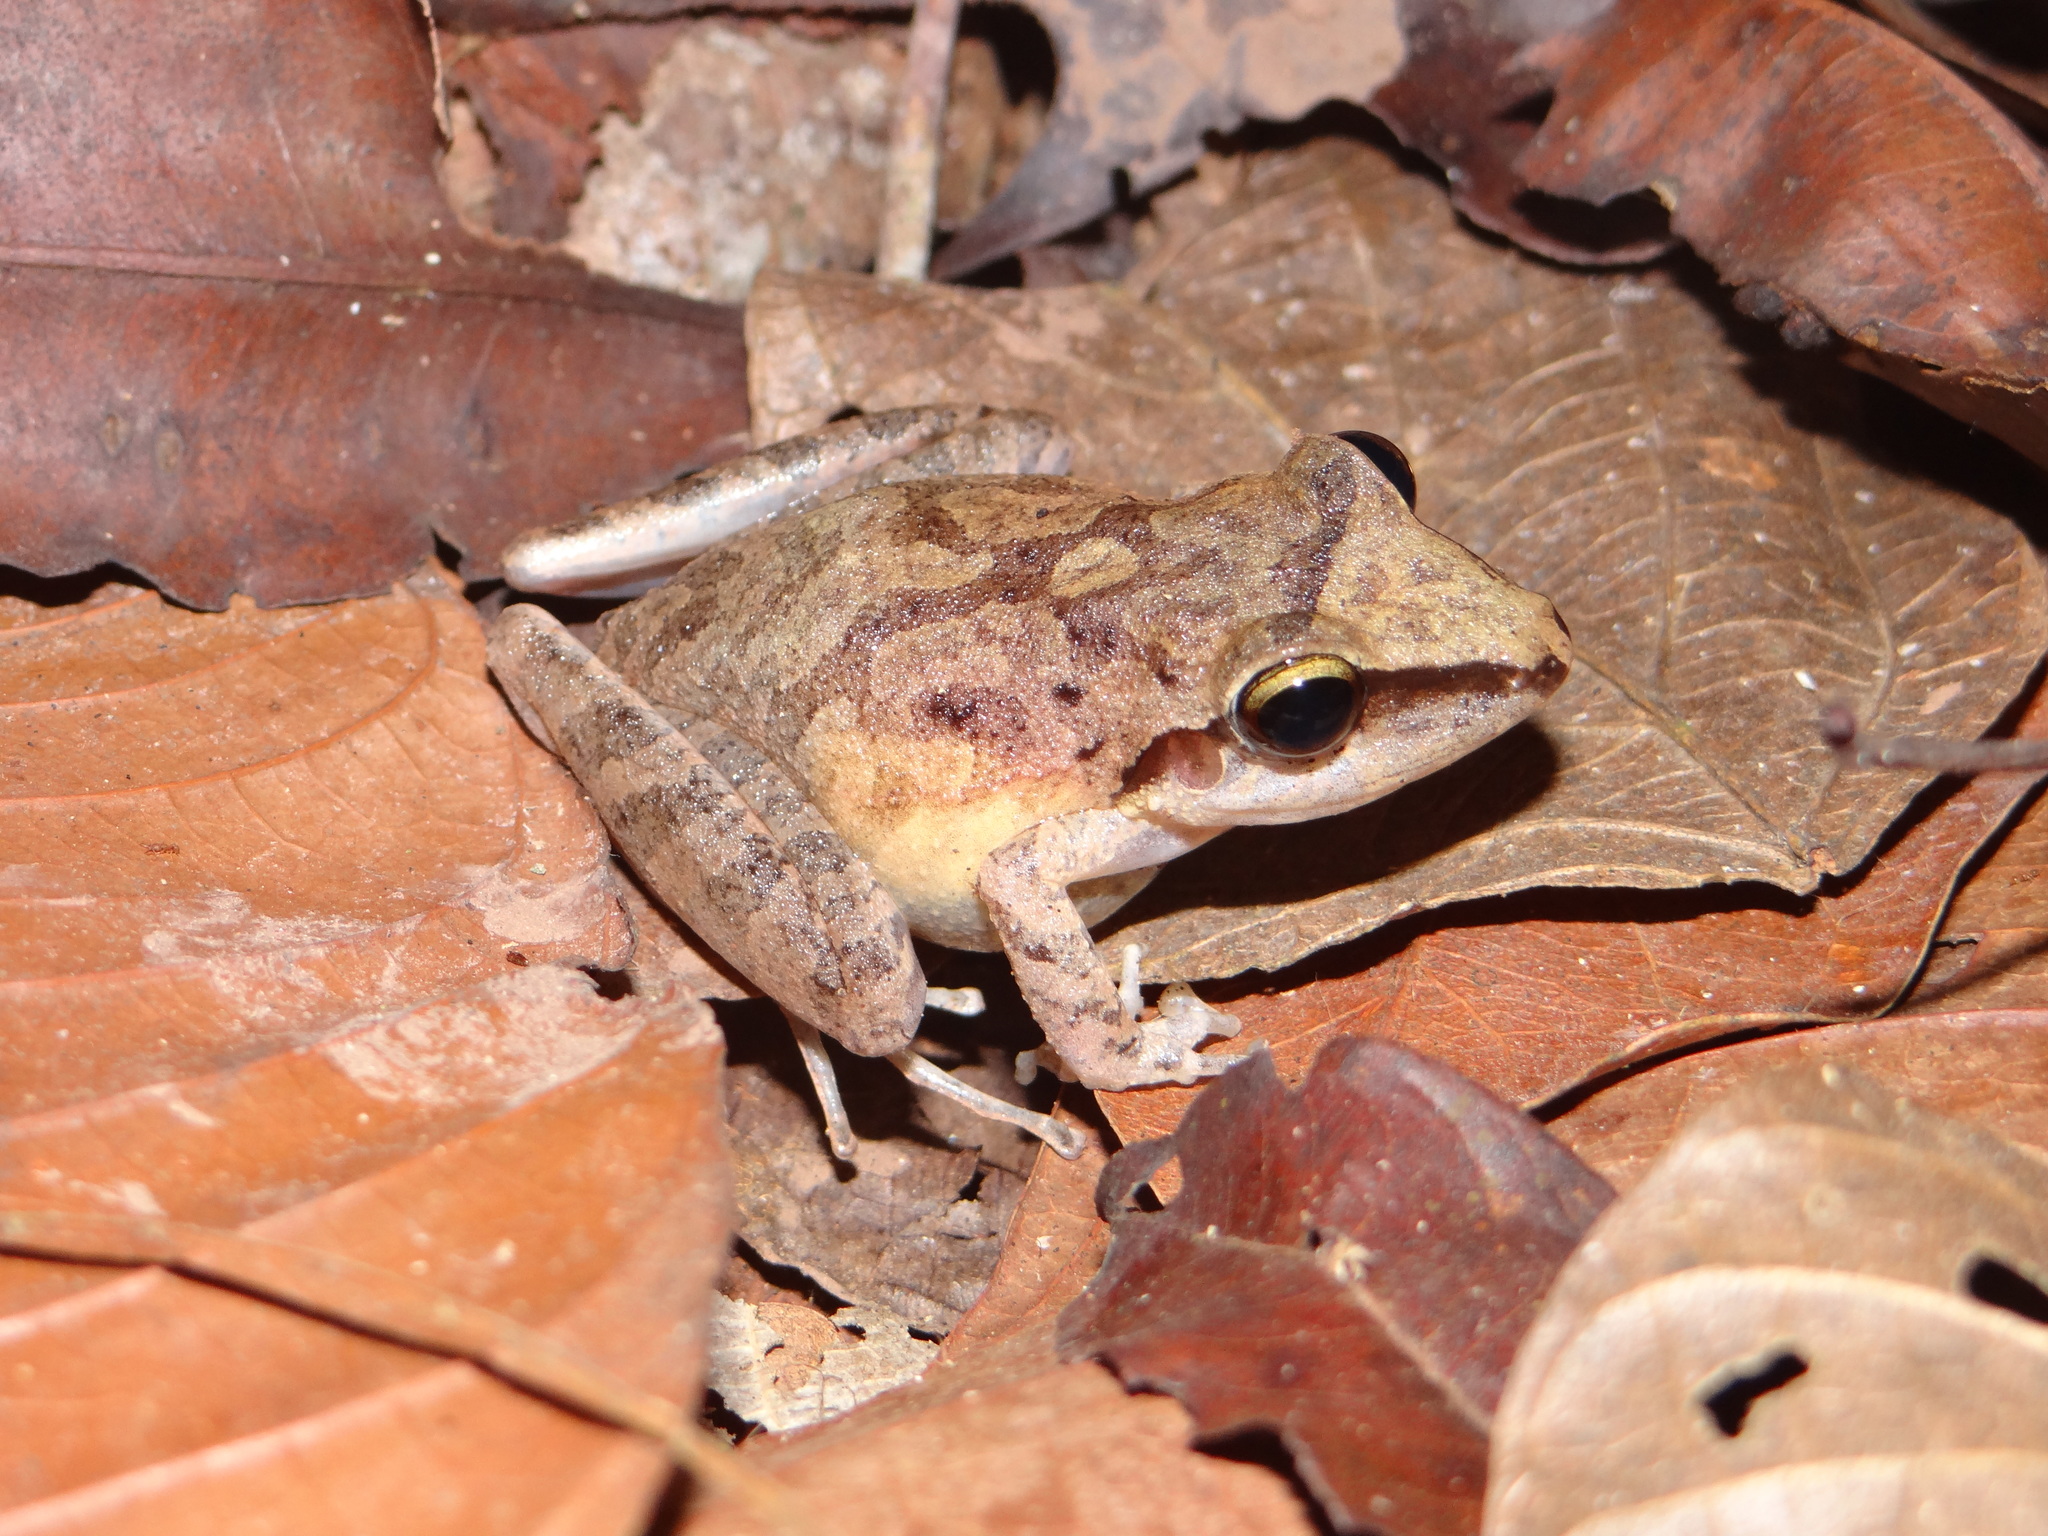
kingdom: Animalia
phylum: Chordata
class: Amphibia
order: Anura
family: Craugastoridae
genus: Pristimantis
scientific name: Pristimantis fenestratus
